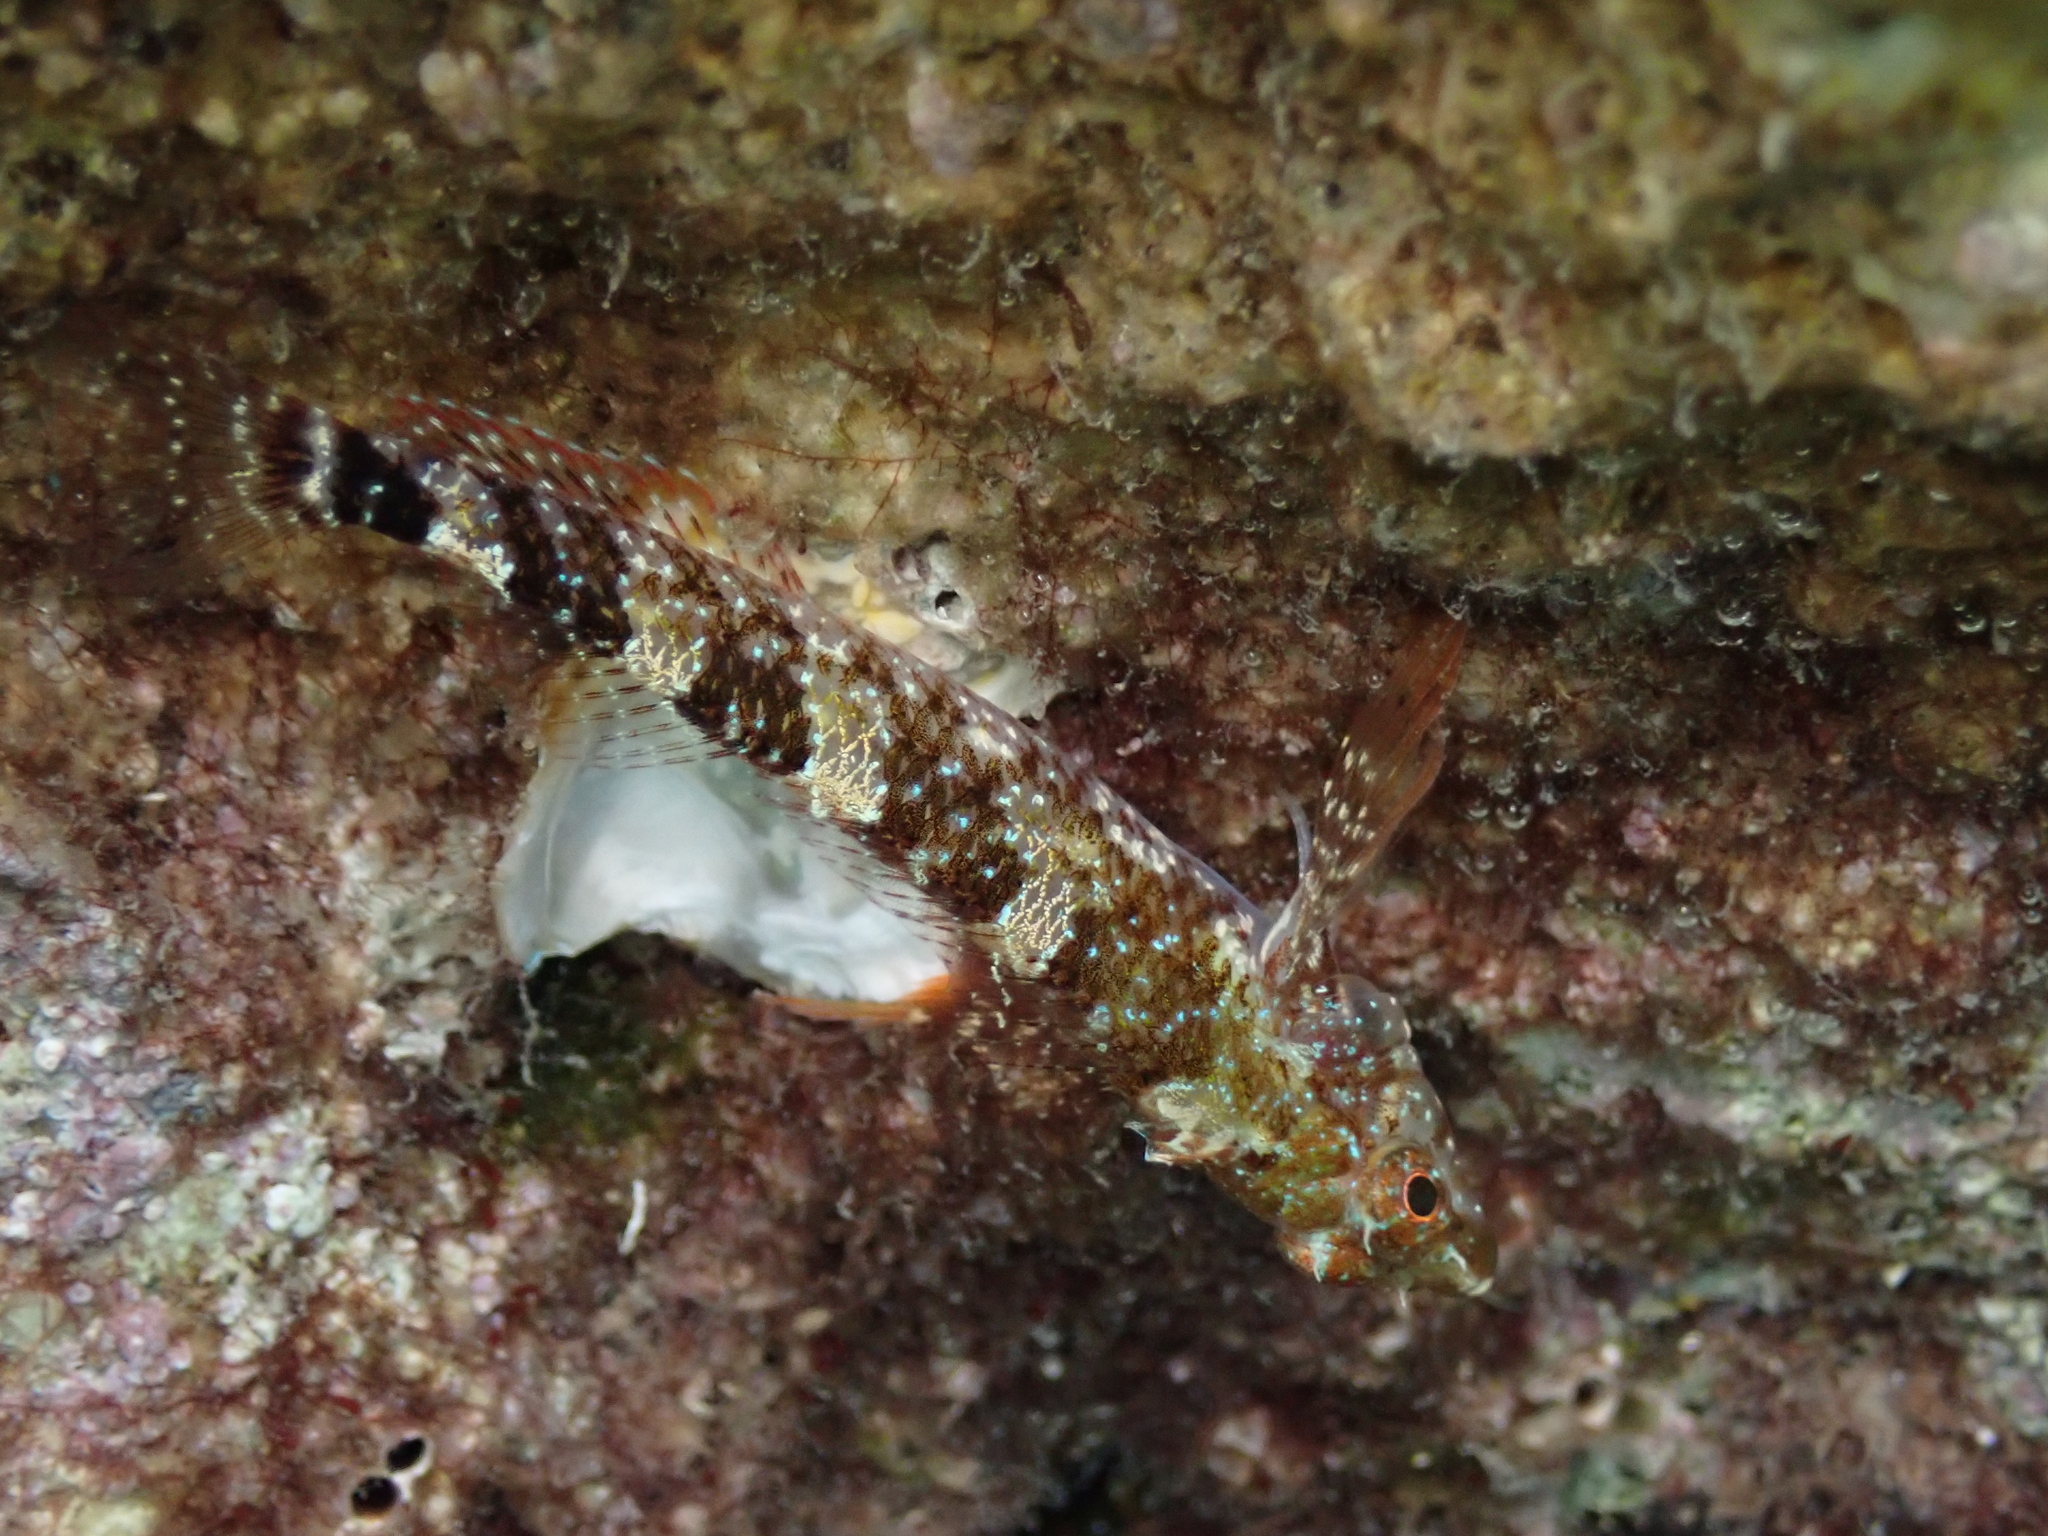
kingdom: Animalia
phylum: Chordata
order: Perciformes
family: Tripterygiidae
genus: Tripterygion
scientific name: Tripterygion tripteronotum
